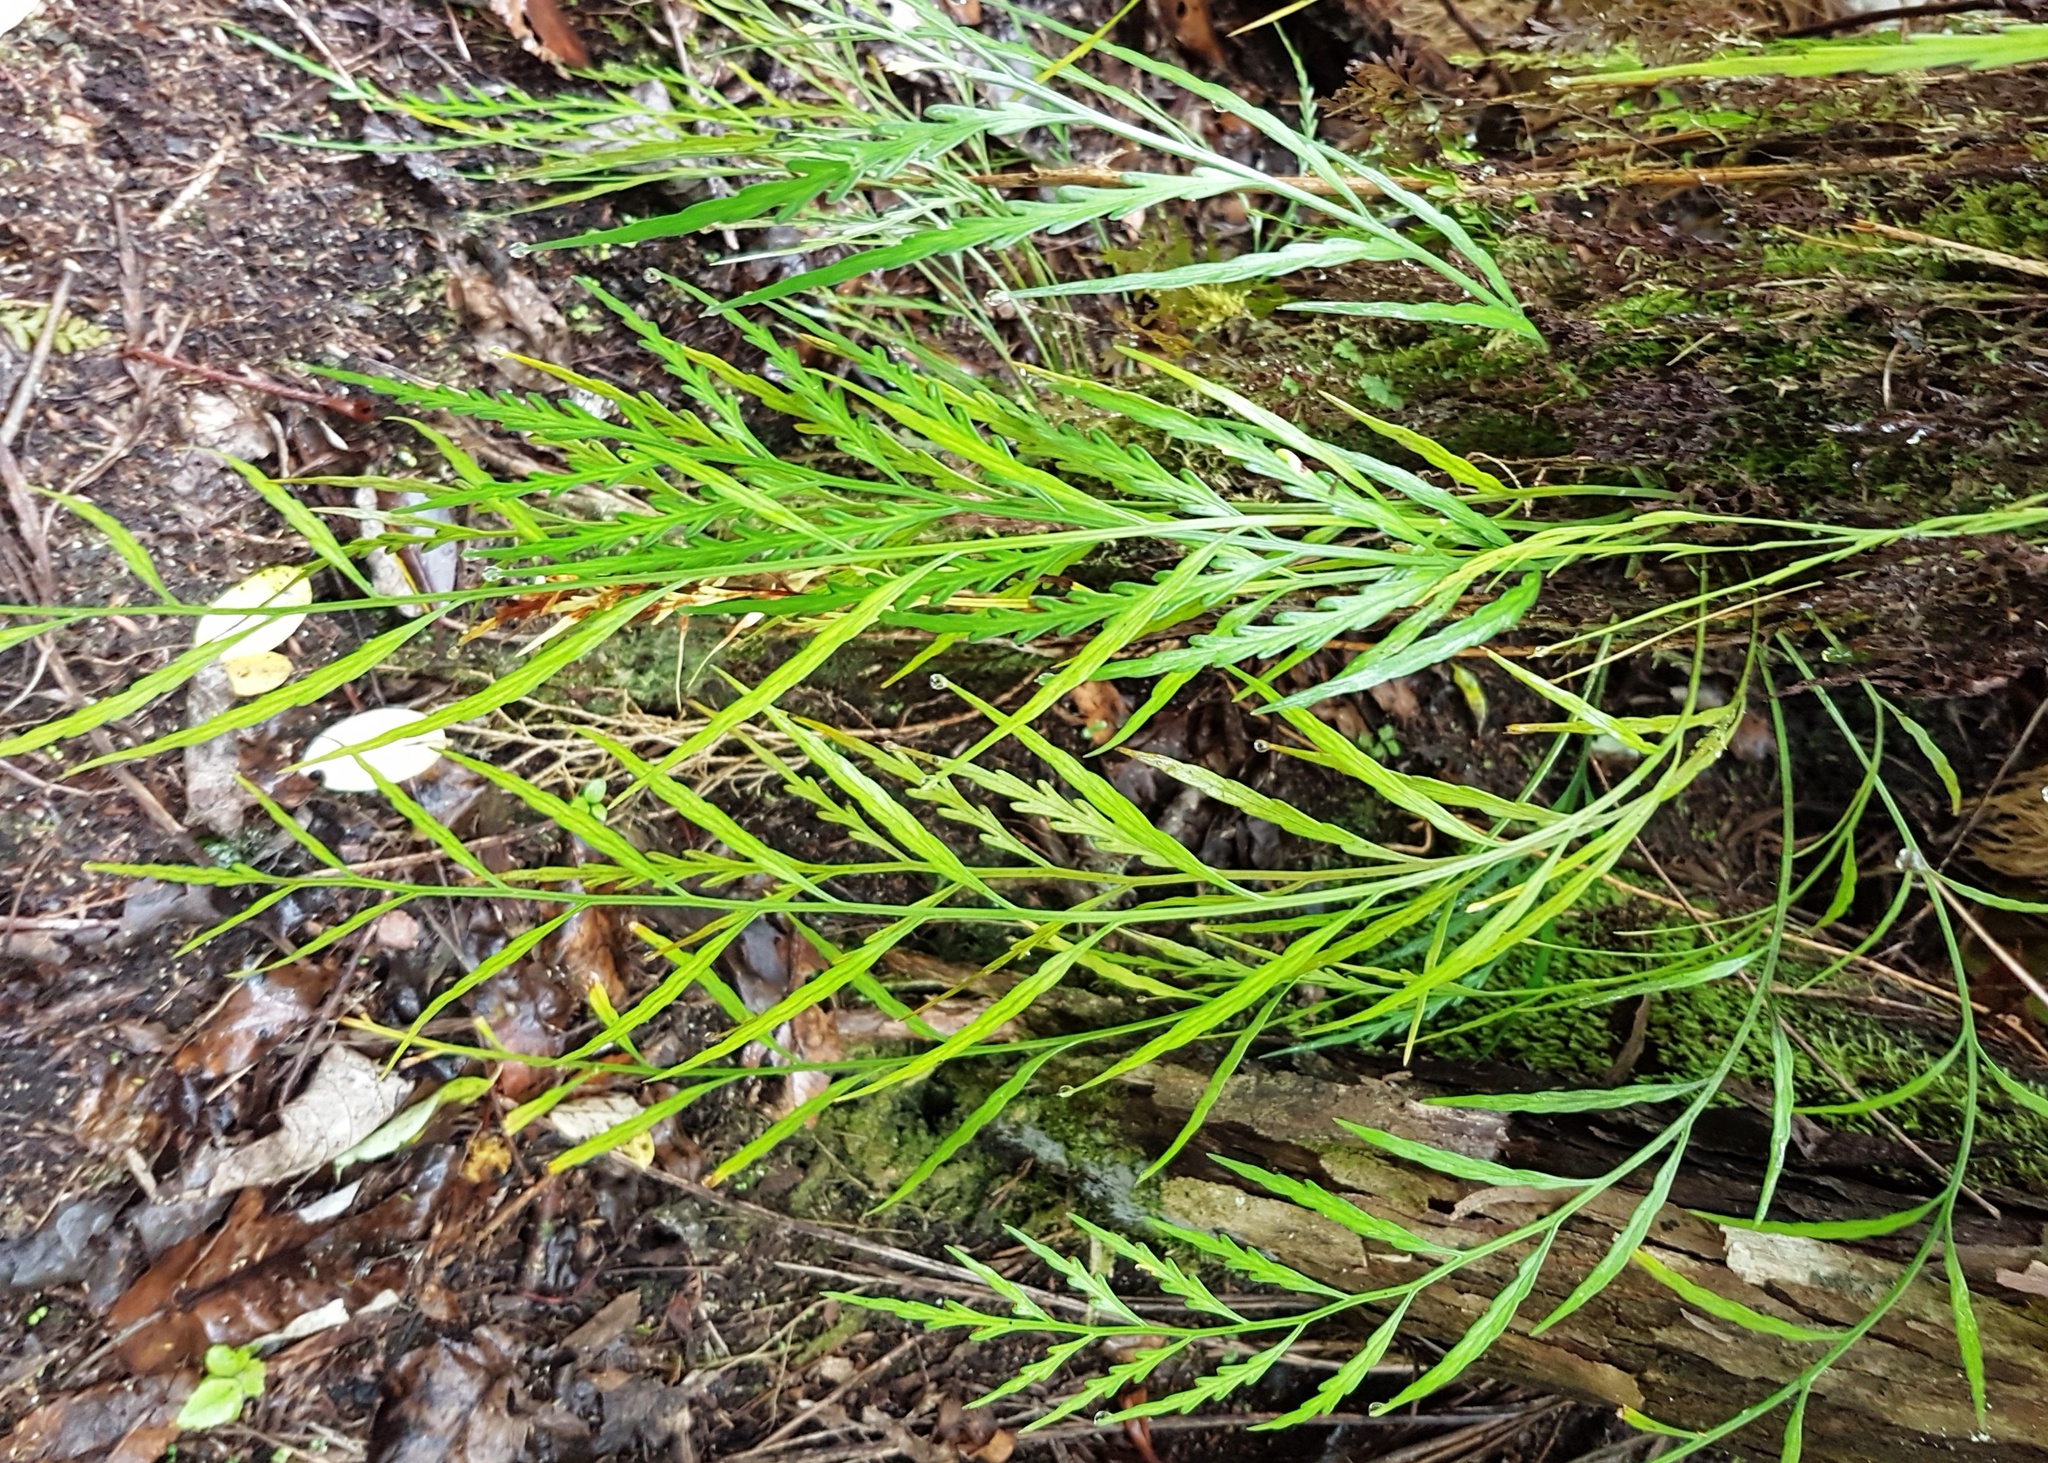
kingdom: Plantae
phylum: Tracheophyta
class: Polypodiopsida
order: Polypodiales
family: Aspleniaceae
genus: Asplenium
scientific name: Asplenium flaccidum
